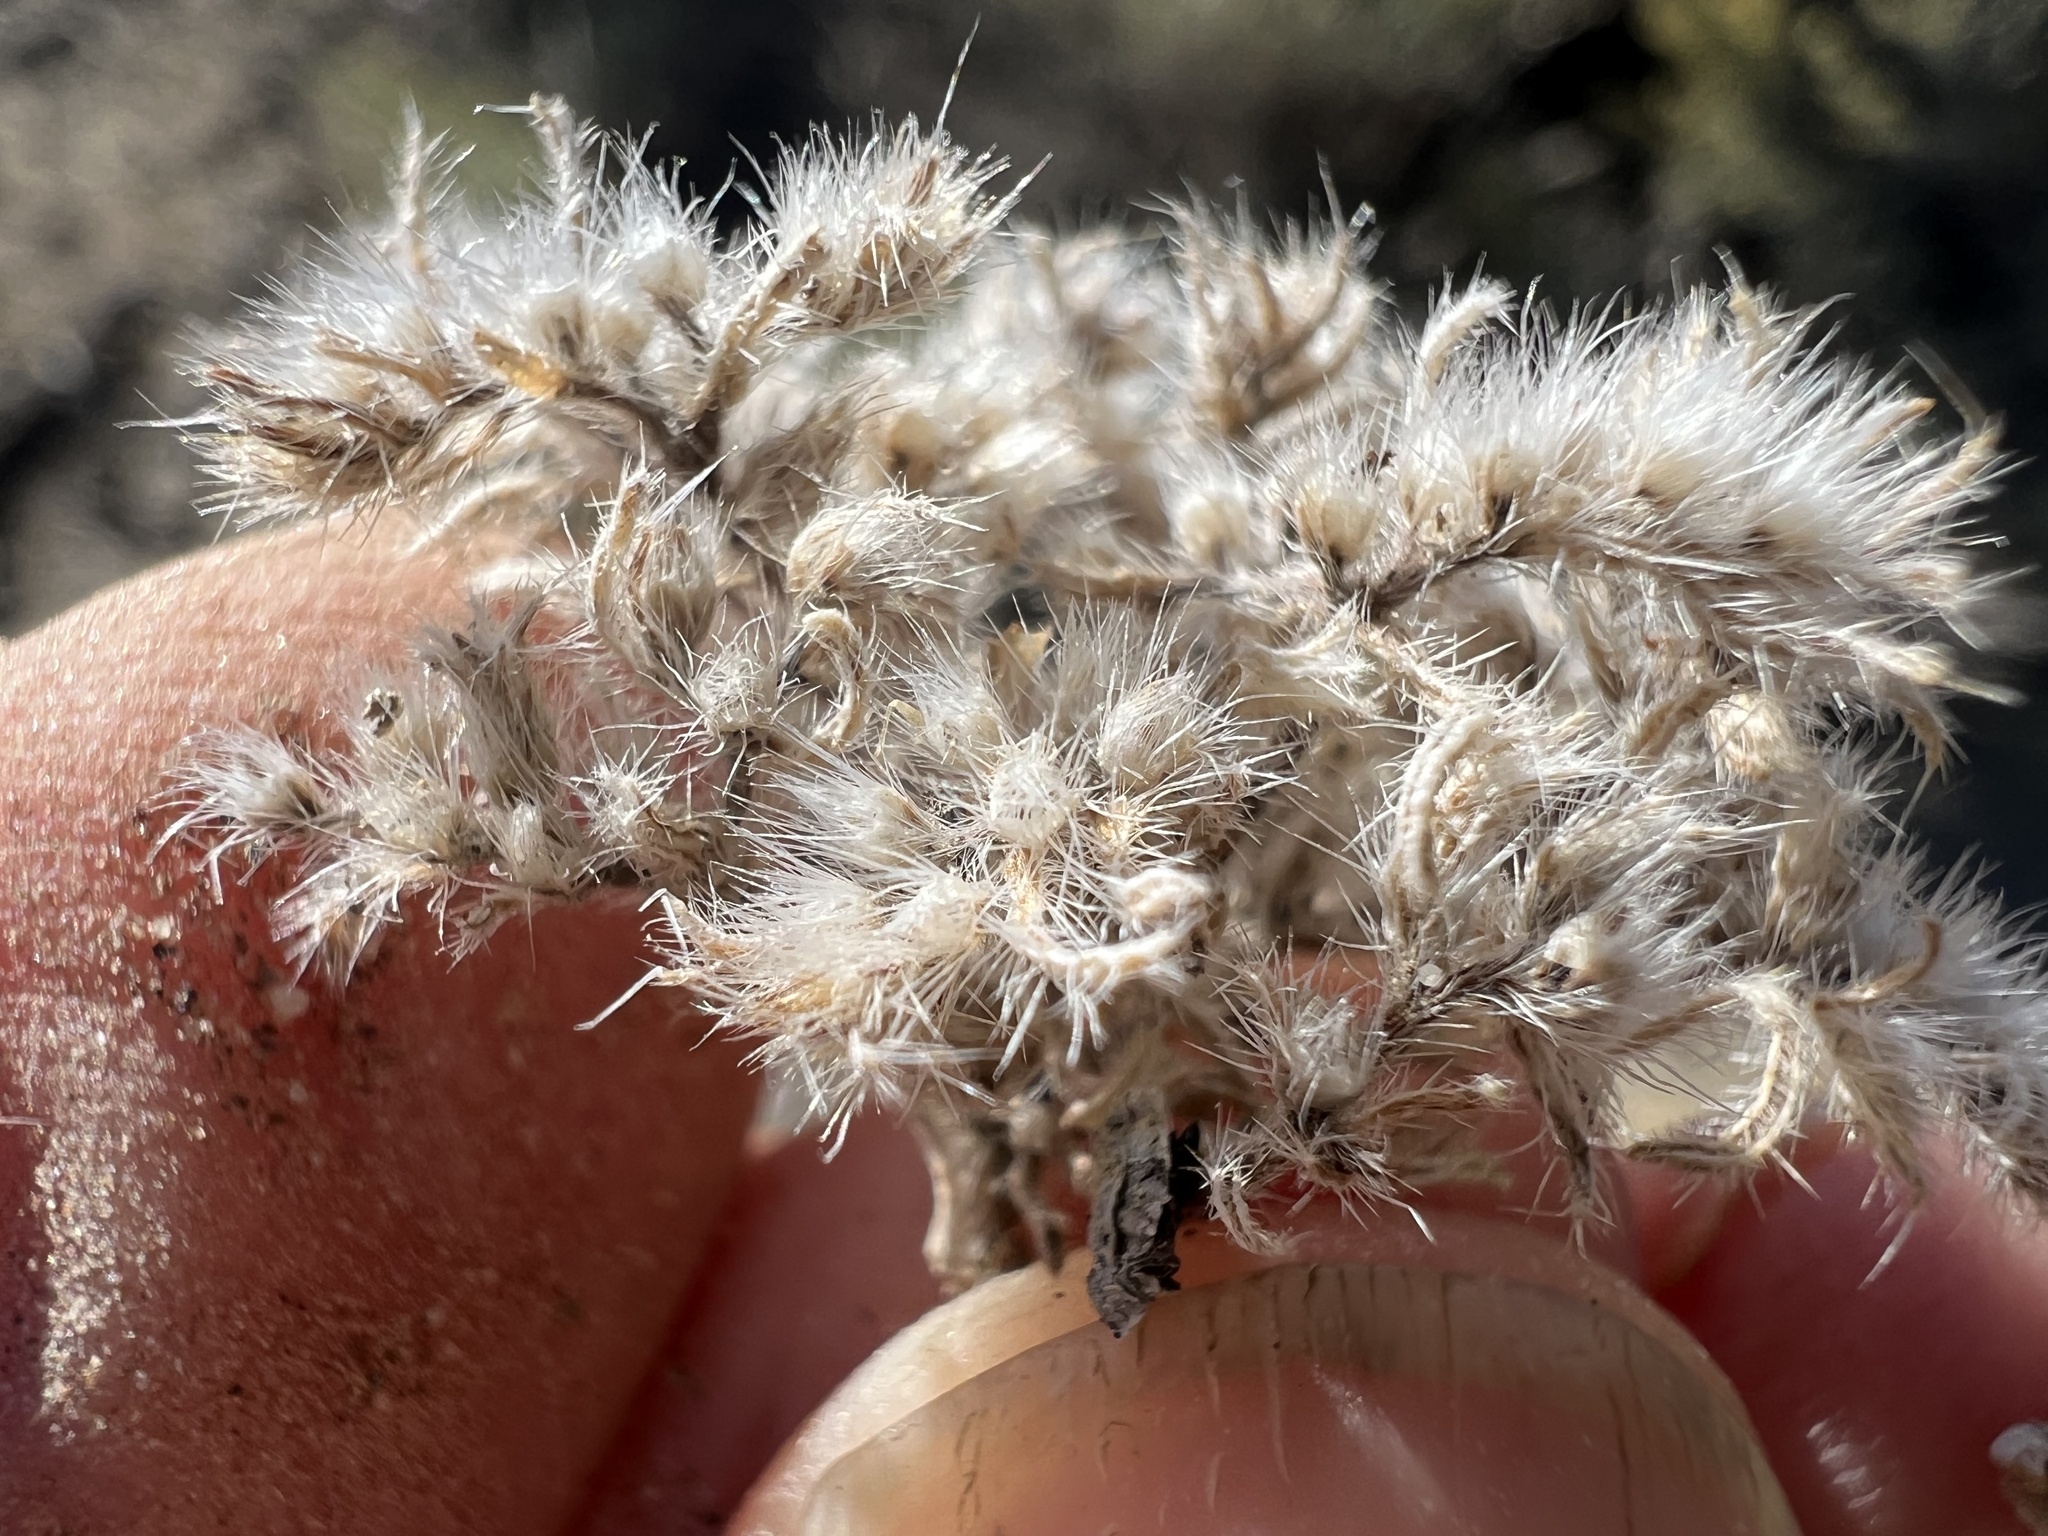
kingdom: Plantae
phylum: Tracheophyta
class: Magnoliopsida
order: Boraginales
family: Boraginaceae
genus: Greeneocharis
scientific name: Greeneocharis circumscissa
